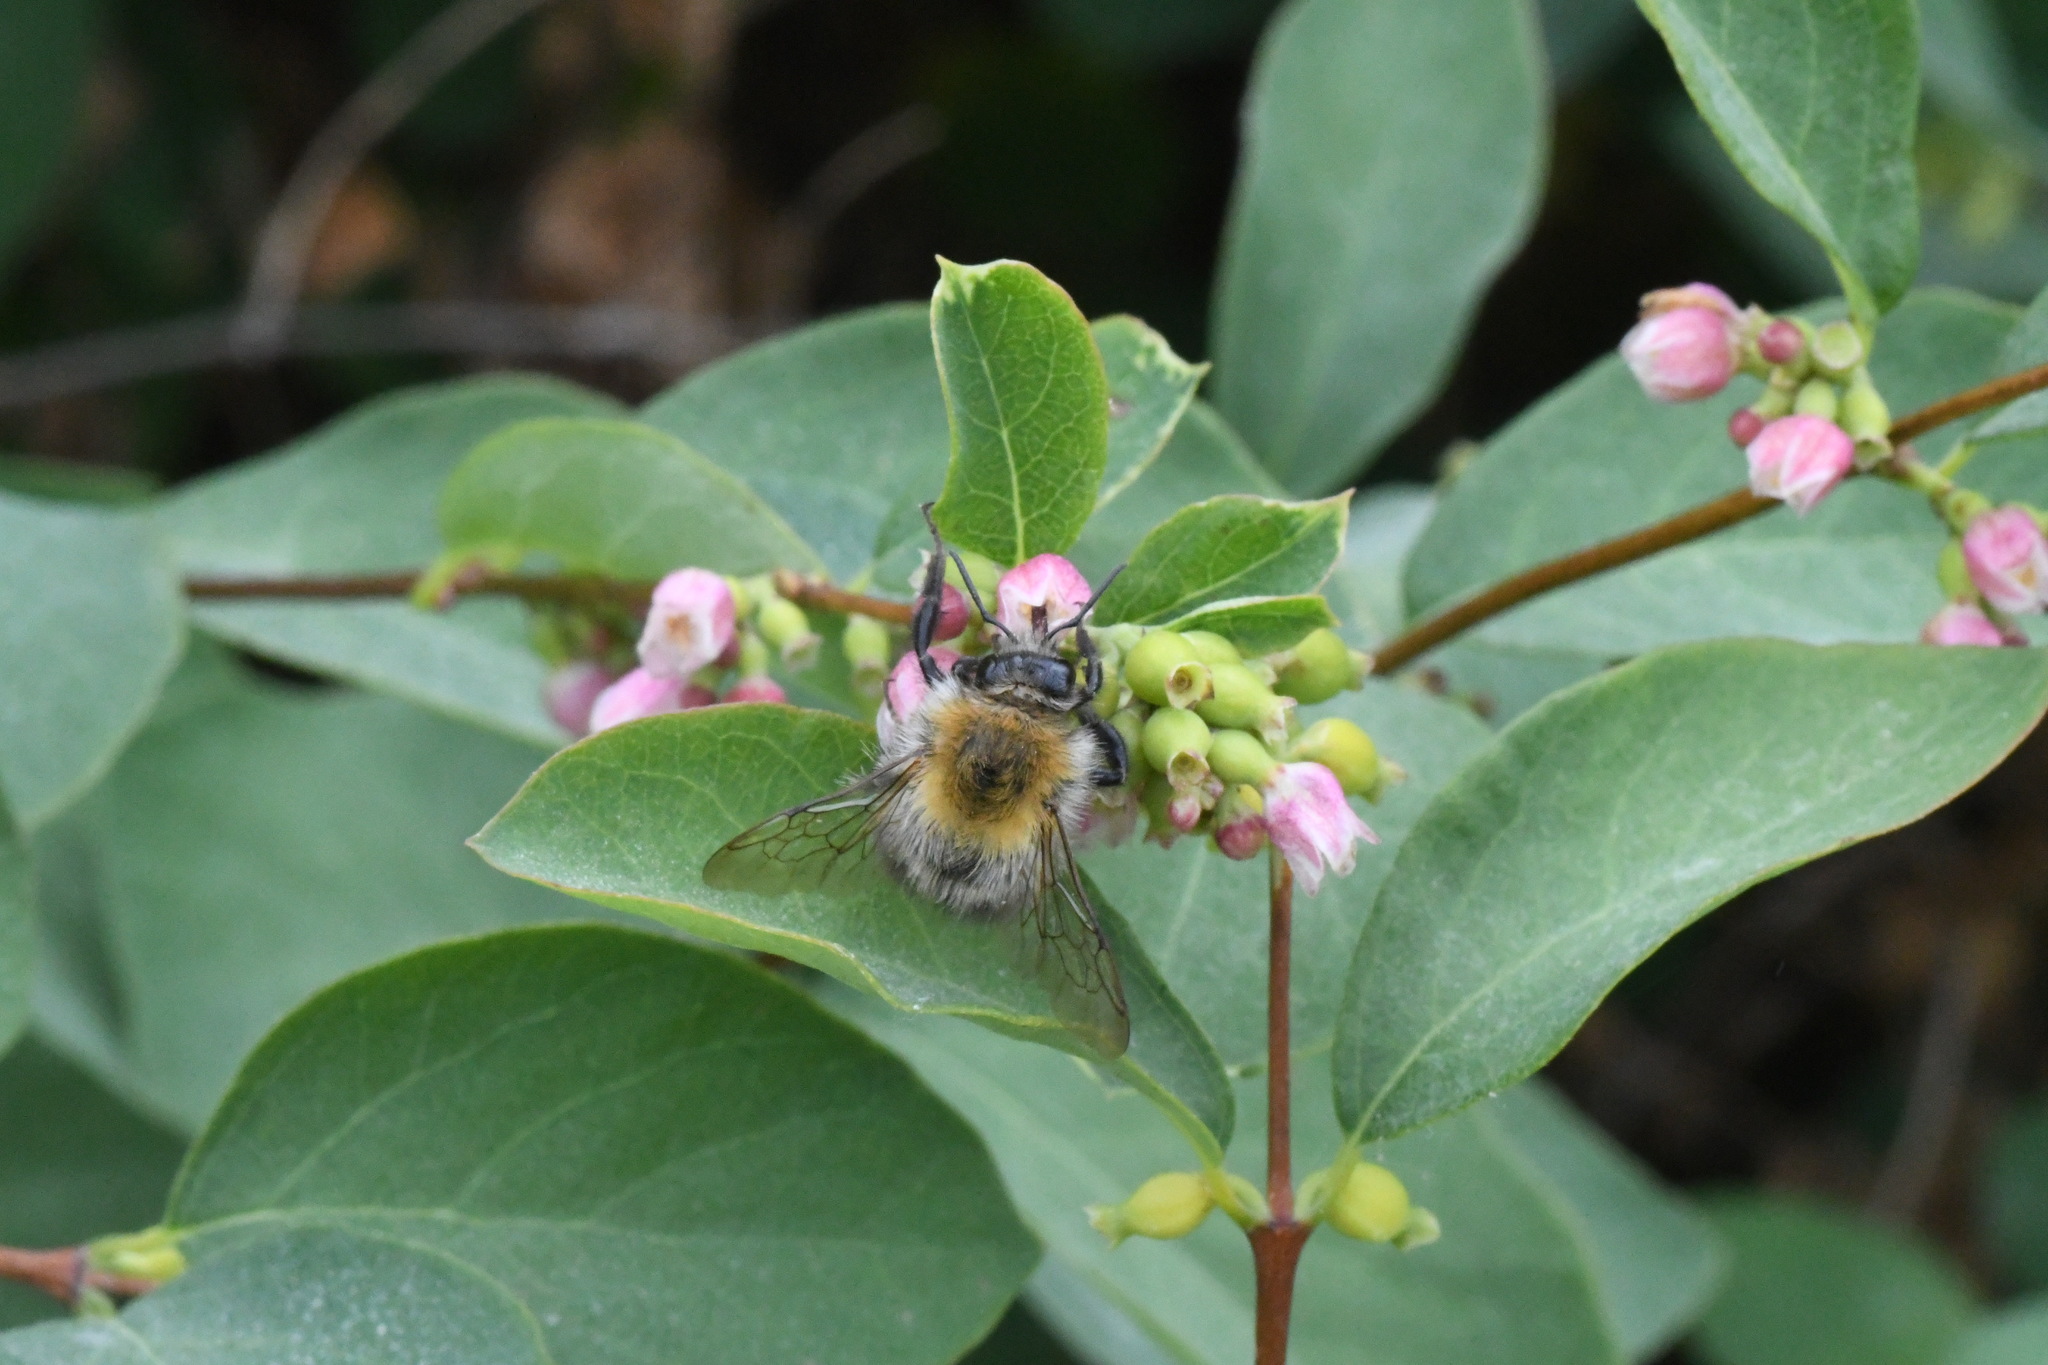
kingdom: Animalia
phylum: Arthropoda
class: Insecta
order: Hymenoptera
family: Apidae
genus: Bombus
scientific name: Bombus pascuorum
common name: Common carder bee
